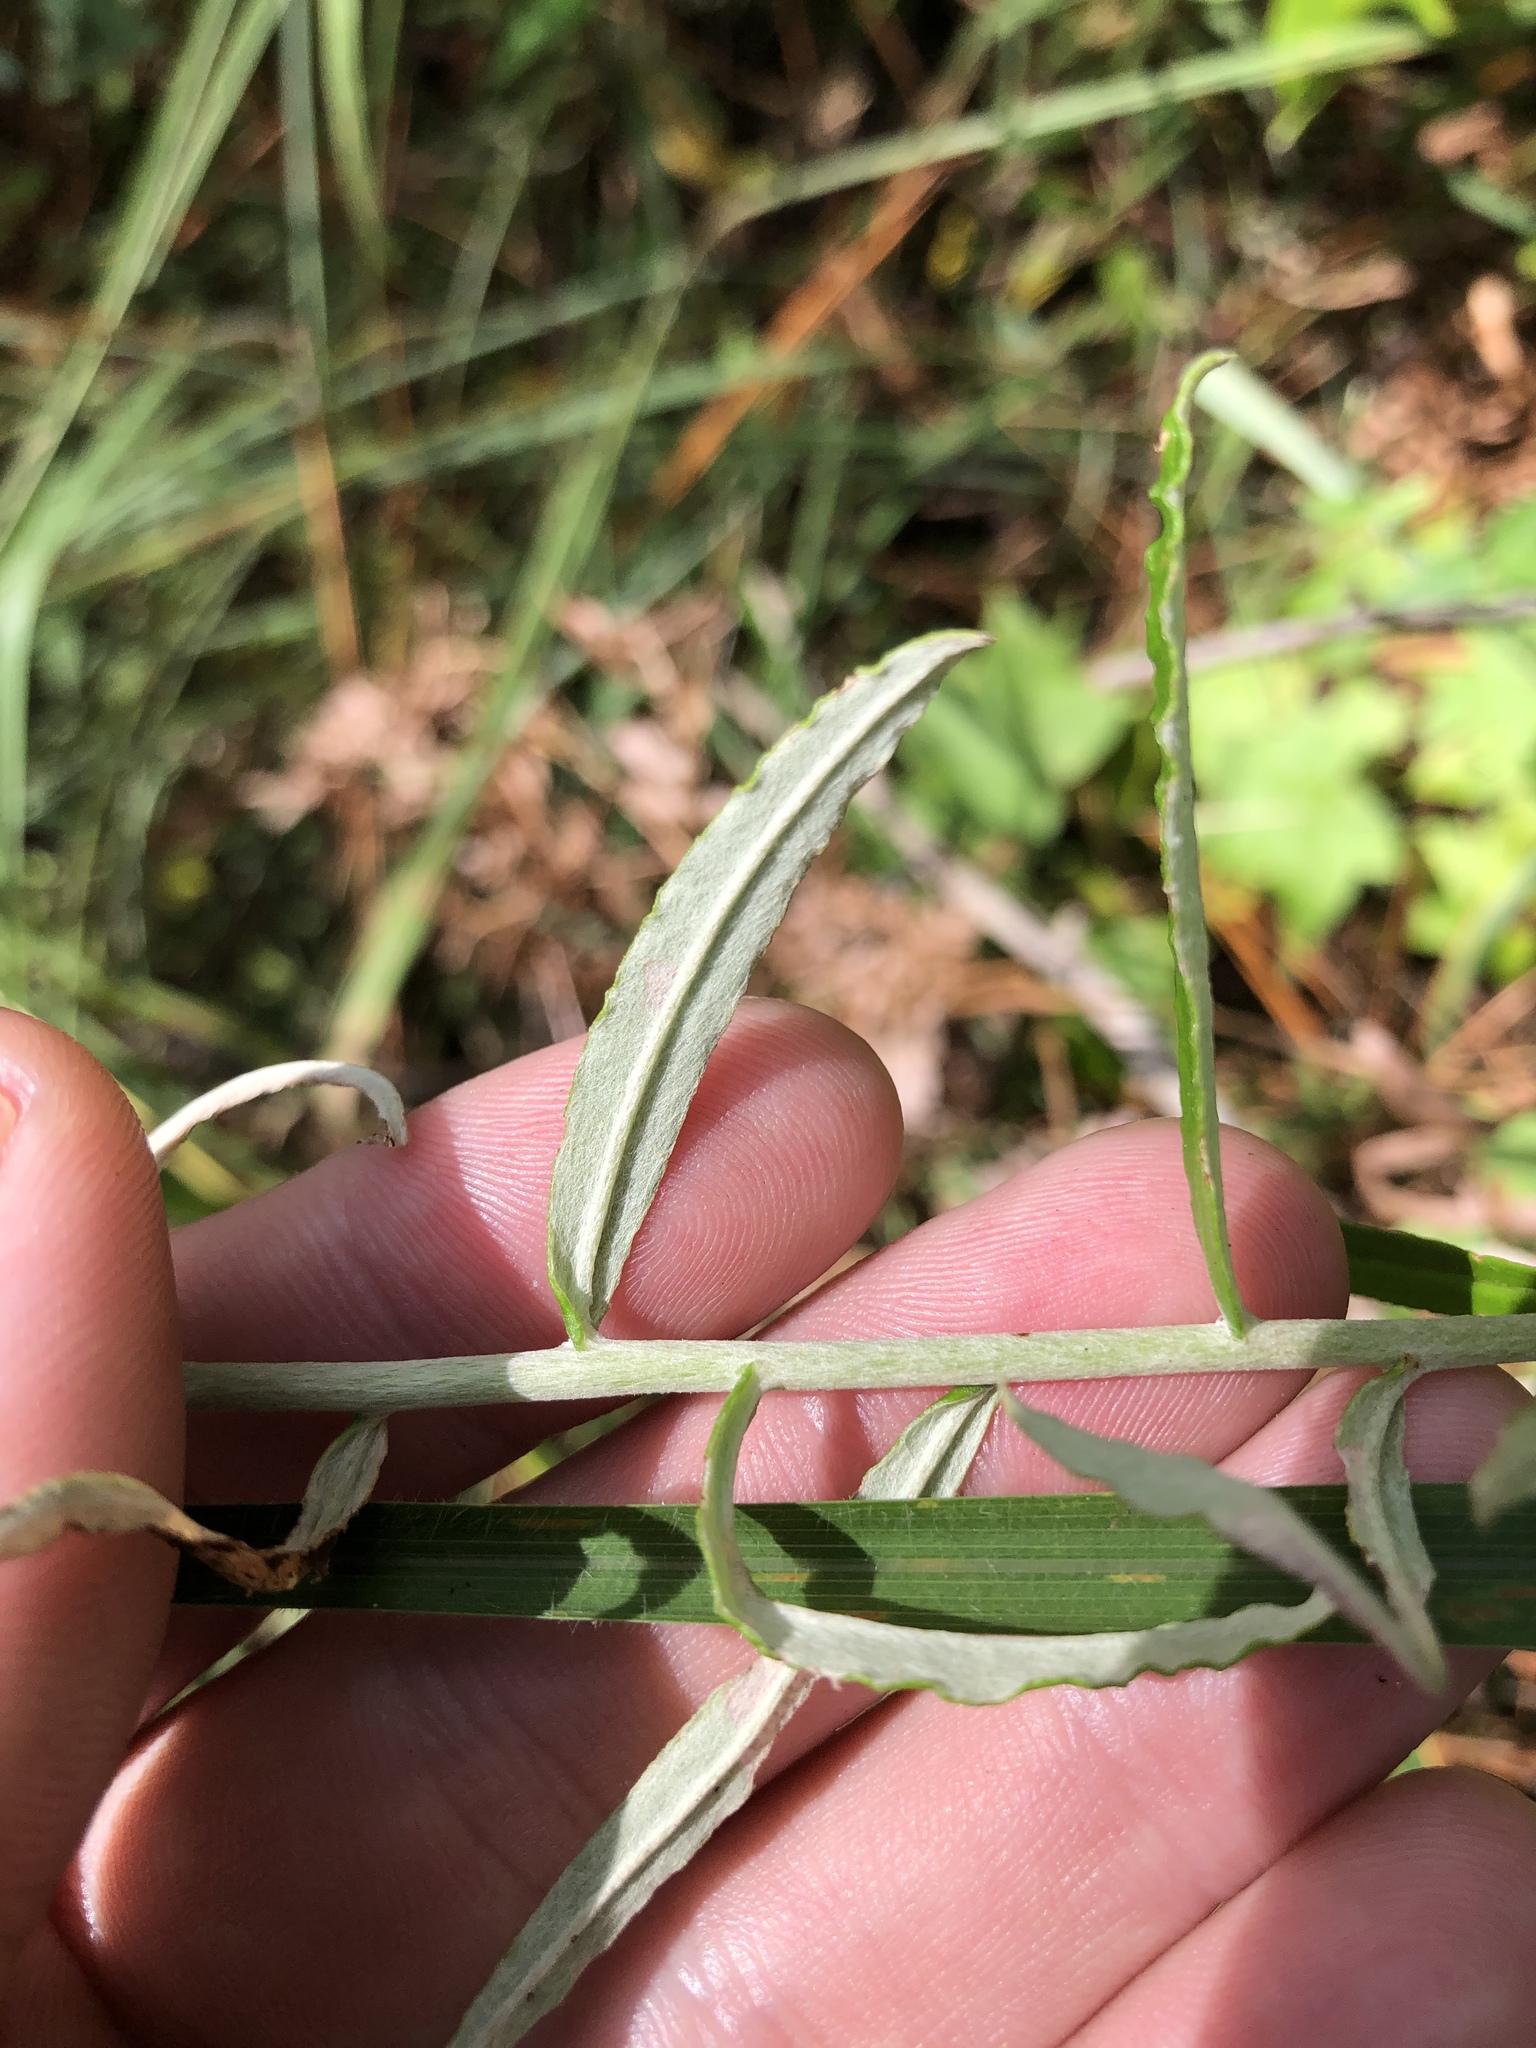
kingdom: Plantae
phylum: Tracheophyta
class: Magnoliopsida
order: Asterales
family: Asteraceae
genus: Pseudognaphalium
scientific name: Pseudognaphalium obtusifolium
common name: Eastern rabbit-tobacco
